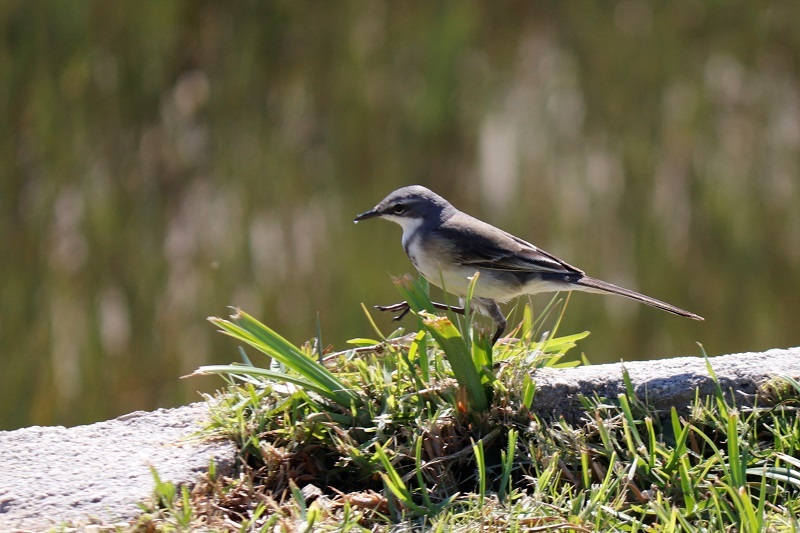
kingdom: Animalia
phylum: Chordata
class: Aves
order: Passeriformes
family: Motacillidae
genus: Motacilla
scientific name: Motacilla capensis
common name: Cape wagtail
